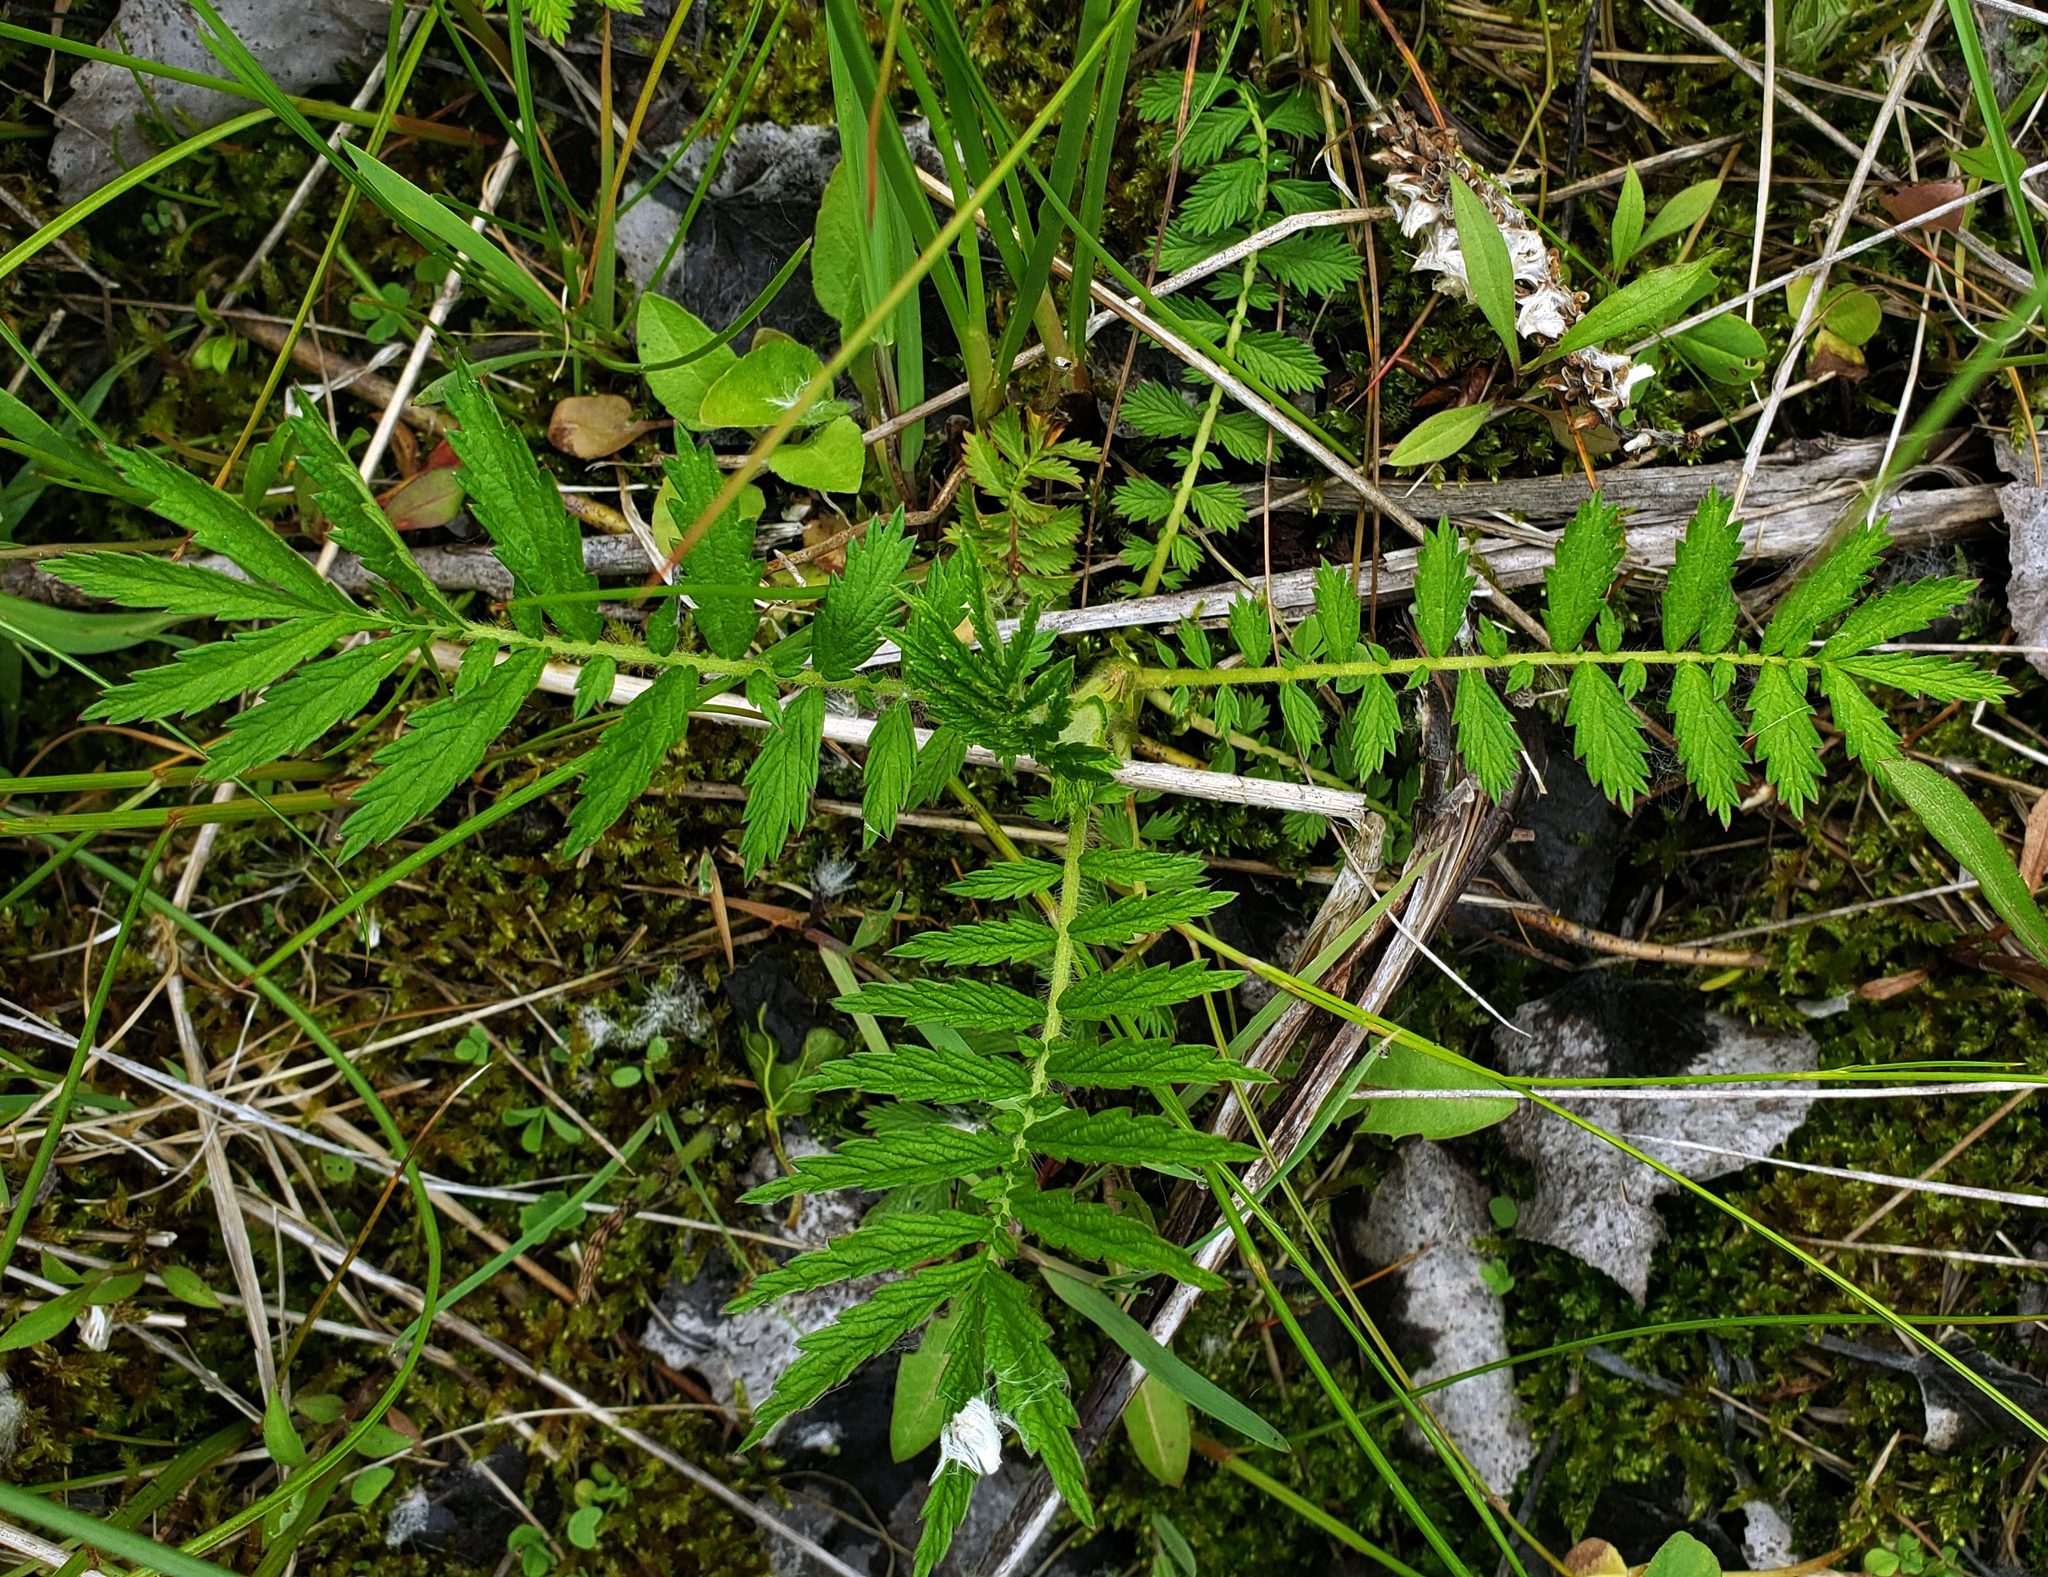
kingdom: Plantae
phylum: Tracheophyta
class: Magnoliopsida
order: Rosales
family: Rosaceae
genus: Agrimonia
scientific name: Agrimonia parviflora
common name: Harvest-lice
